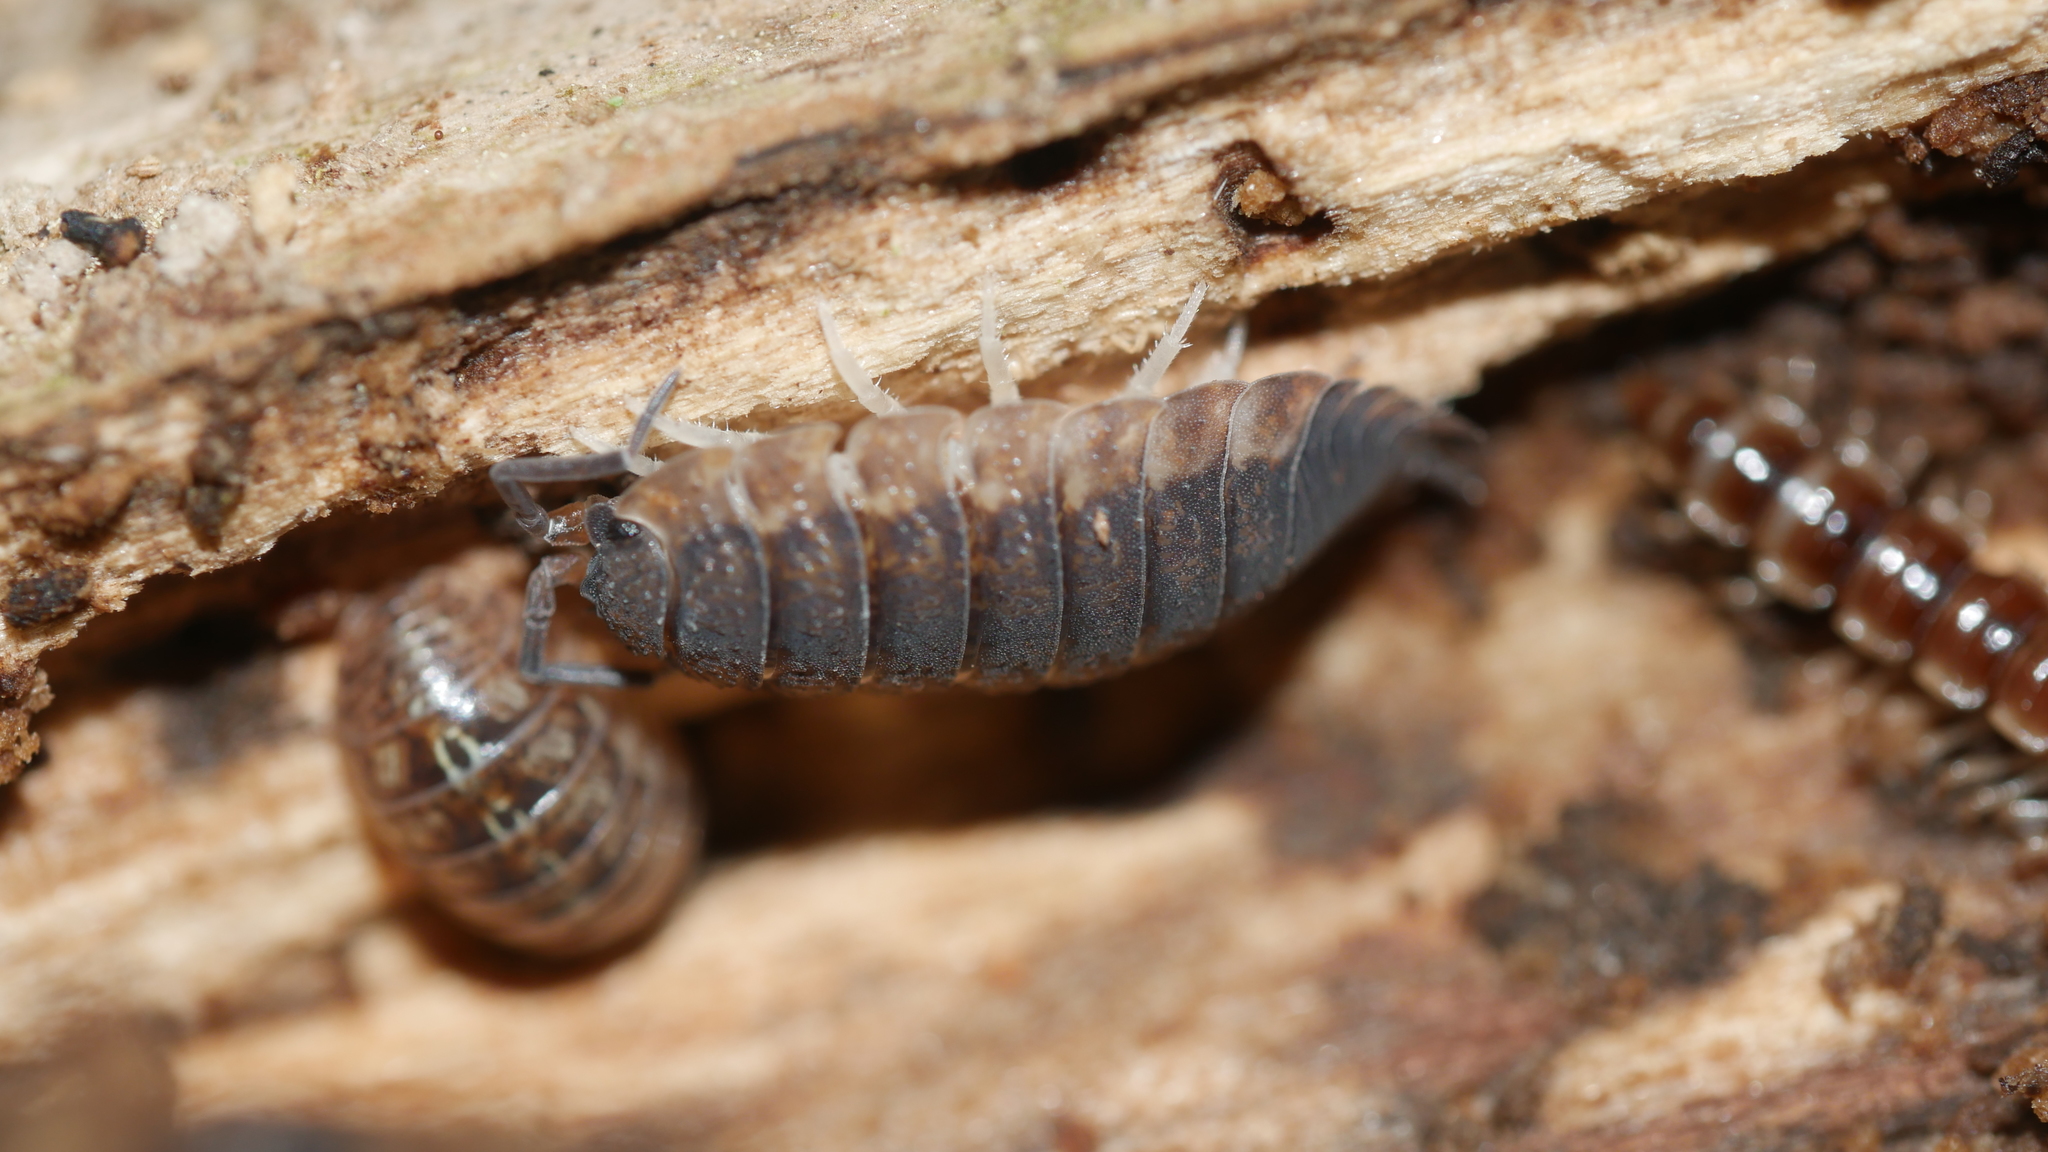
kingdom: Animalia
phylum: Arthropoda
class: Malacostraca
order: Isopoda
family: Porcellionidae
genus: Porcellio
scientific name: Porcellio scaber
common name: Common rough woodlouse
